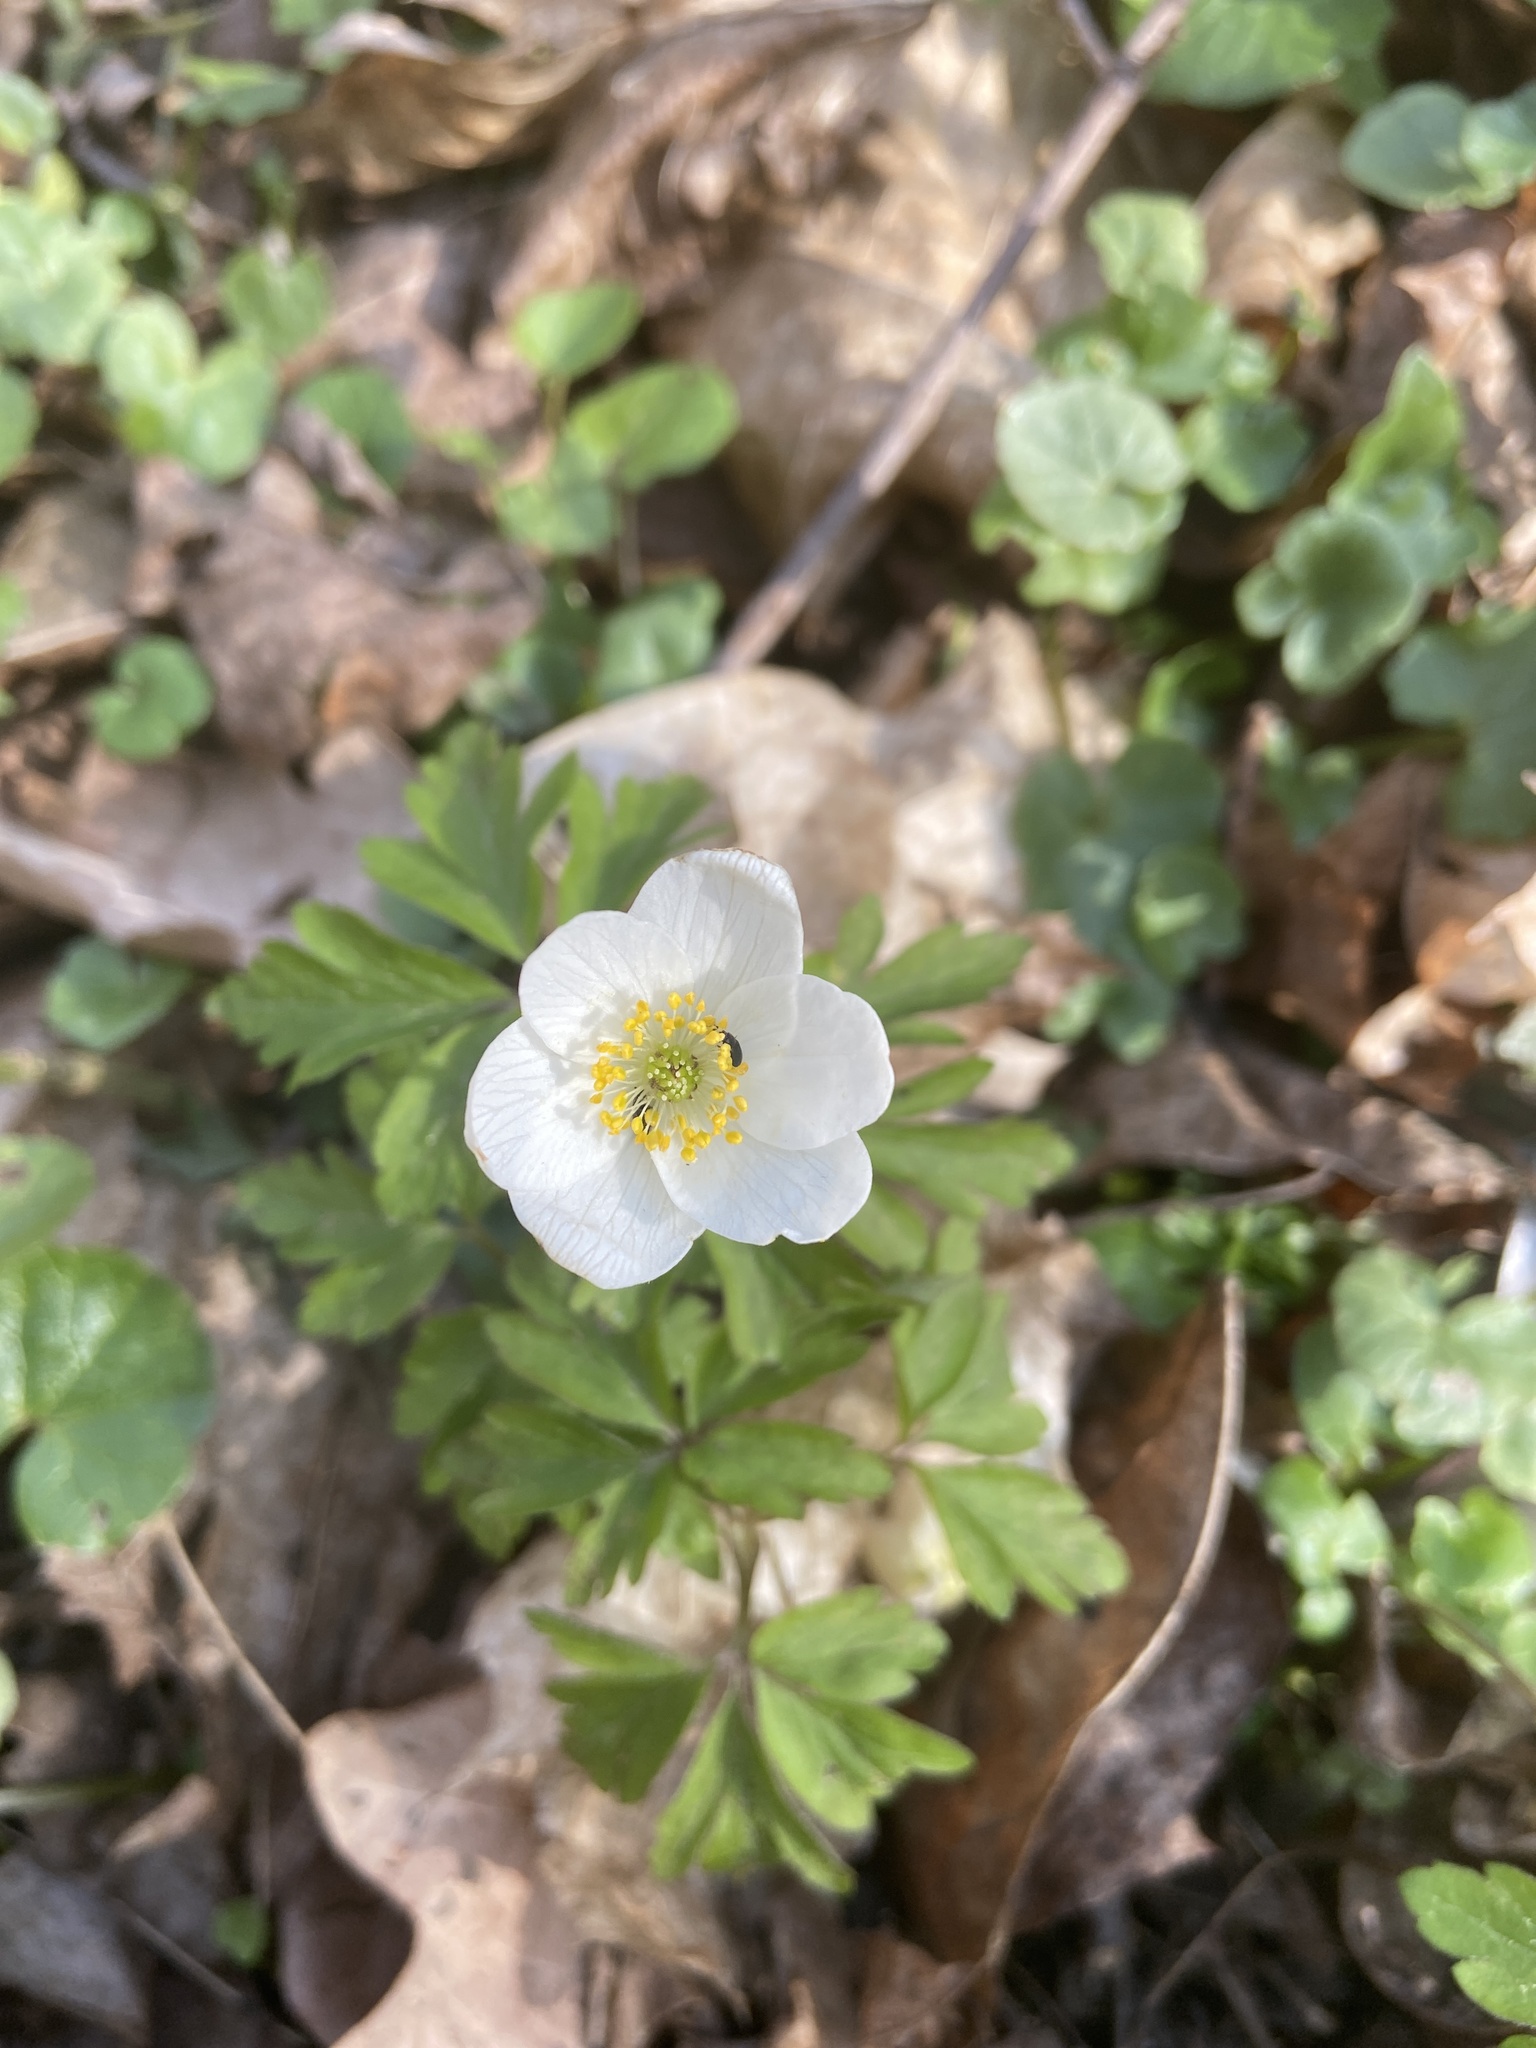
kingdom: Plantae
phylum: Tracheophyta
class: Magnoliopsida
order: Ranunculales
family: Ranunculaceae
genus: Anemone
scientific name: Anemone nemorosa
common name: Wood anemone
